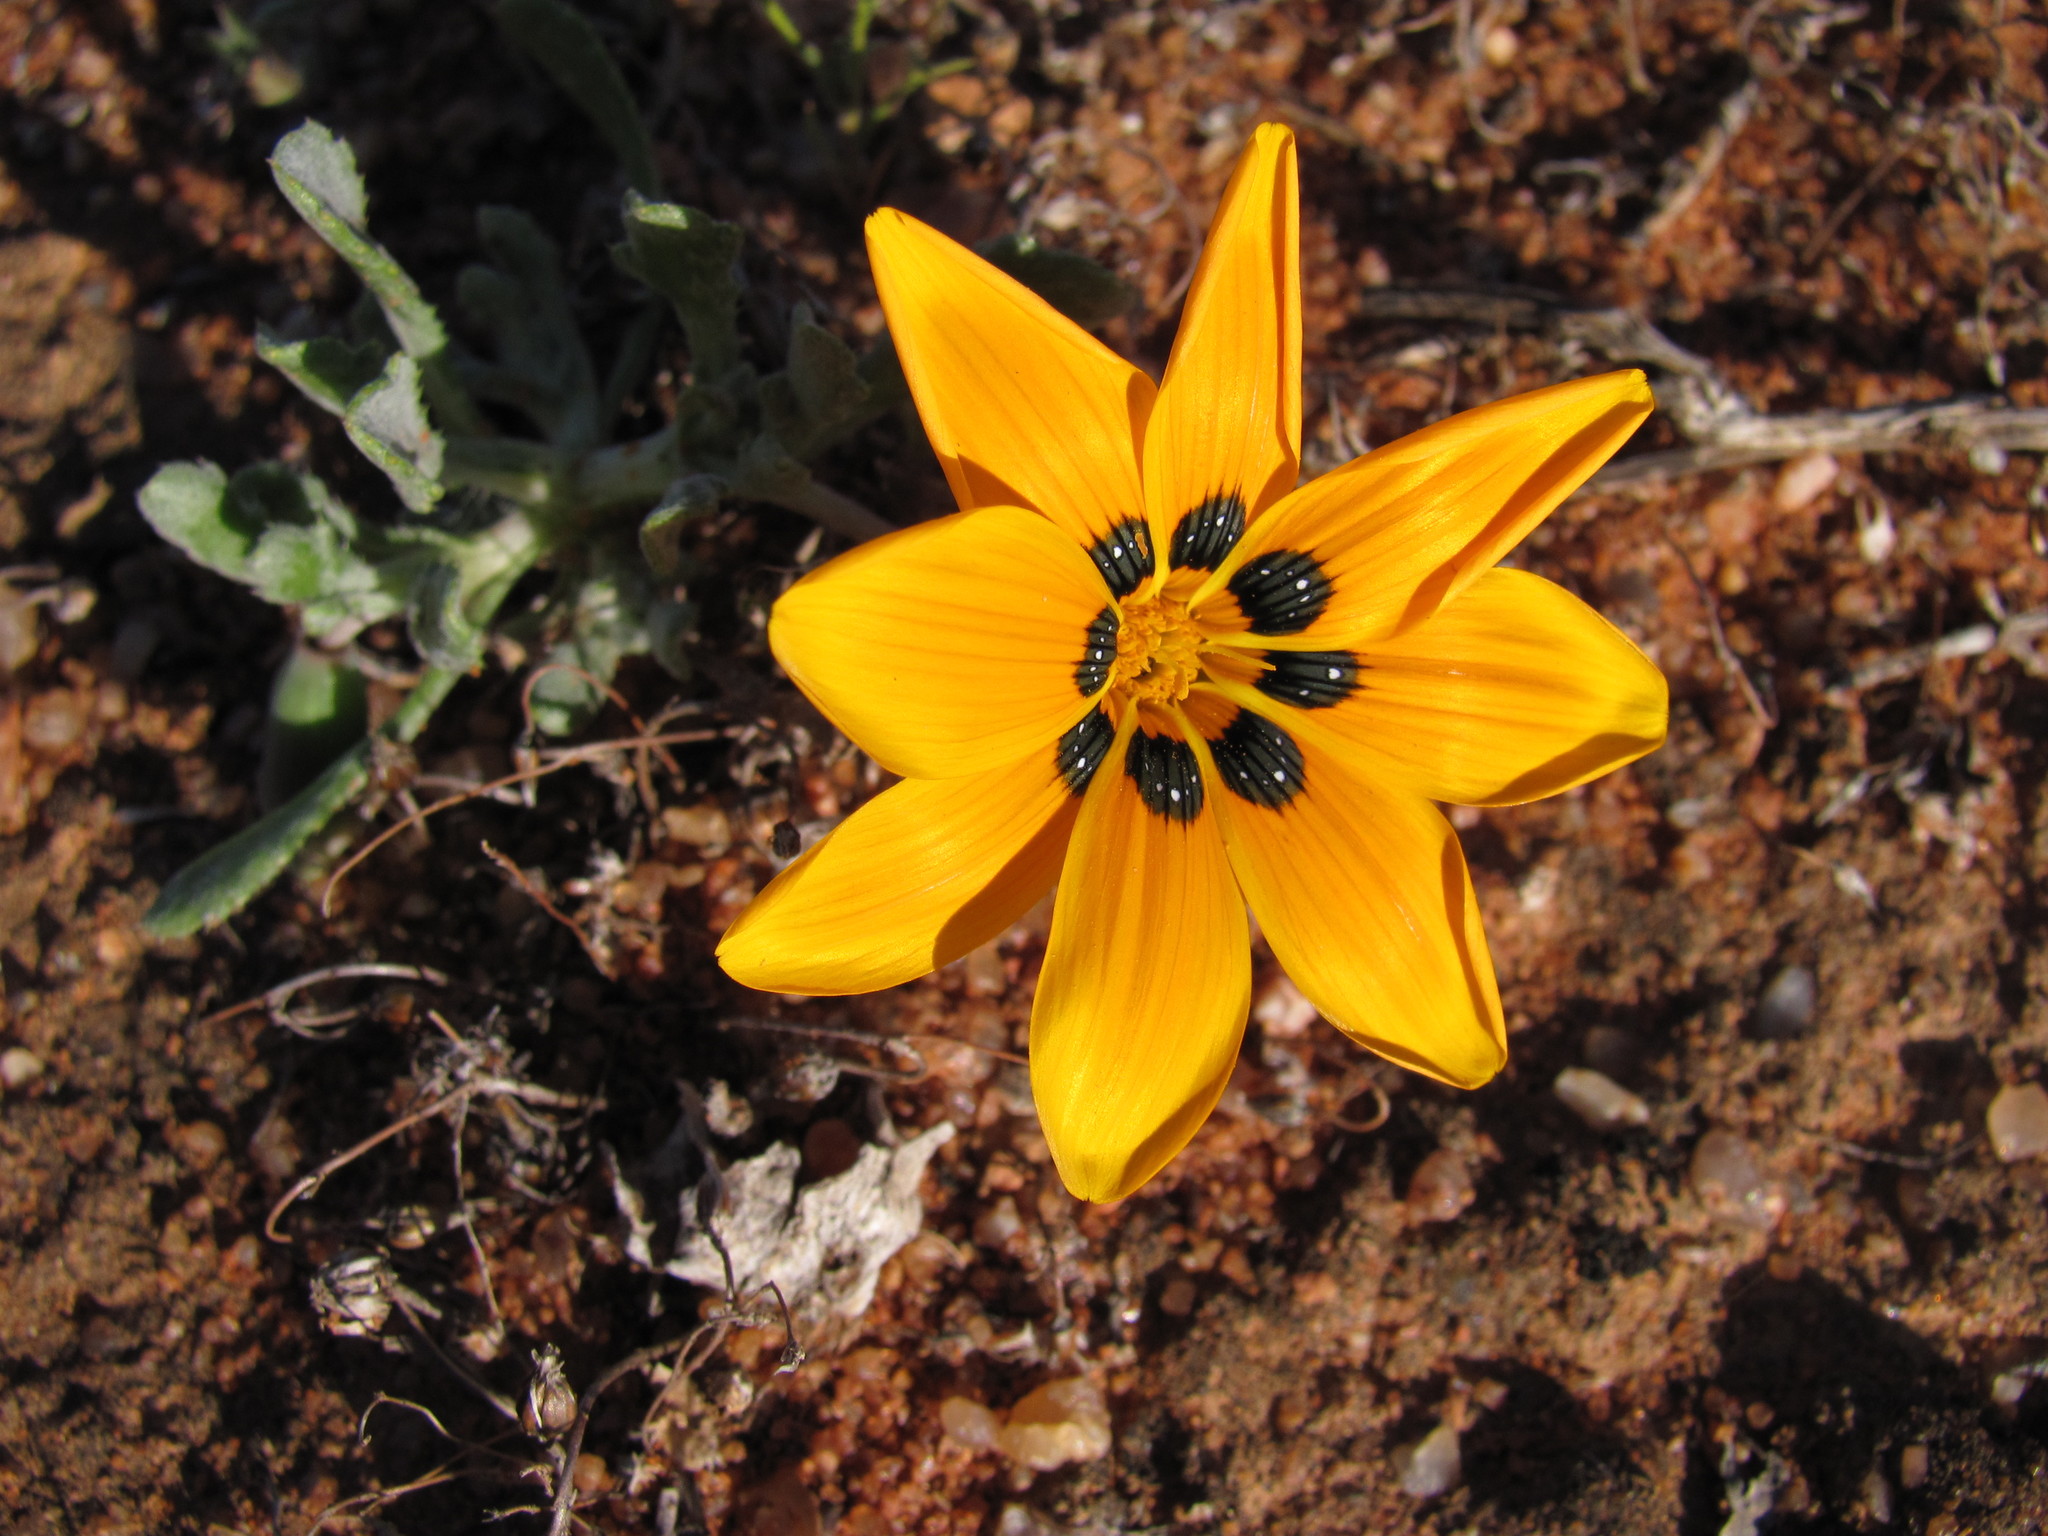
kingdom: Plantae
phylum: Tracheophyta
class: Magnoliopsida
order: Asterales
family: Asteraceae
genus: Gazania
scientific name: Gazania lichtensteinii
